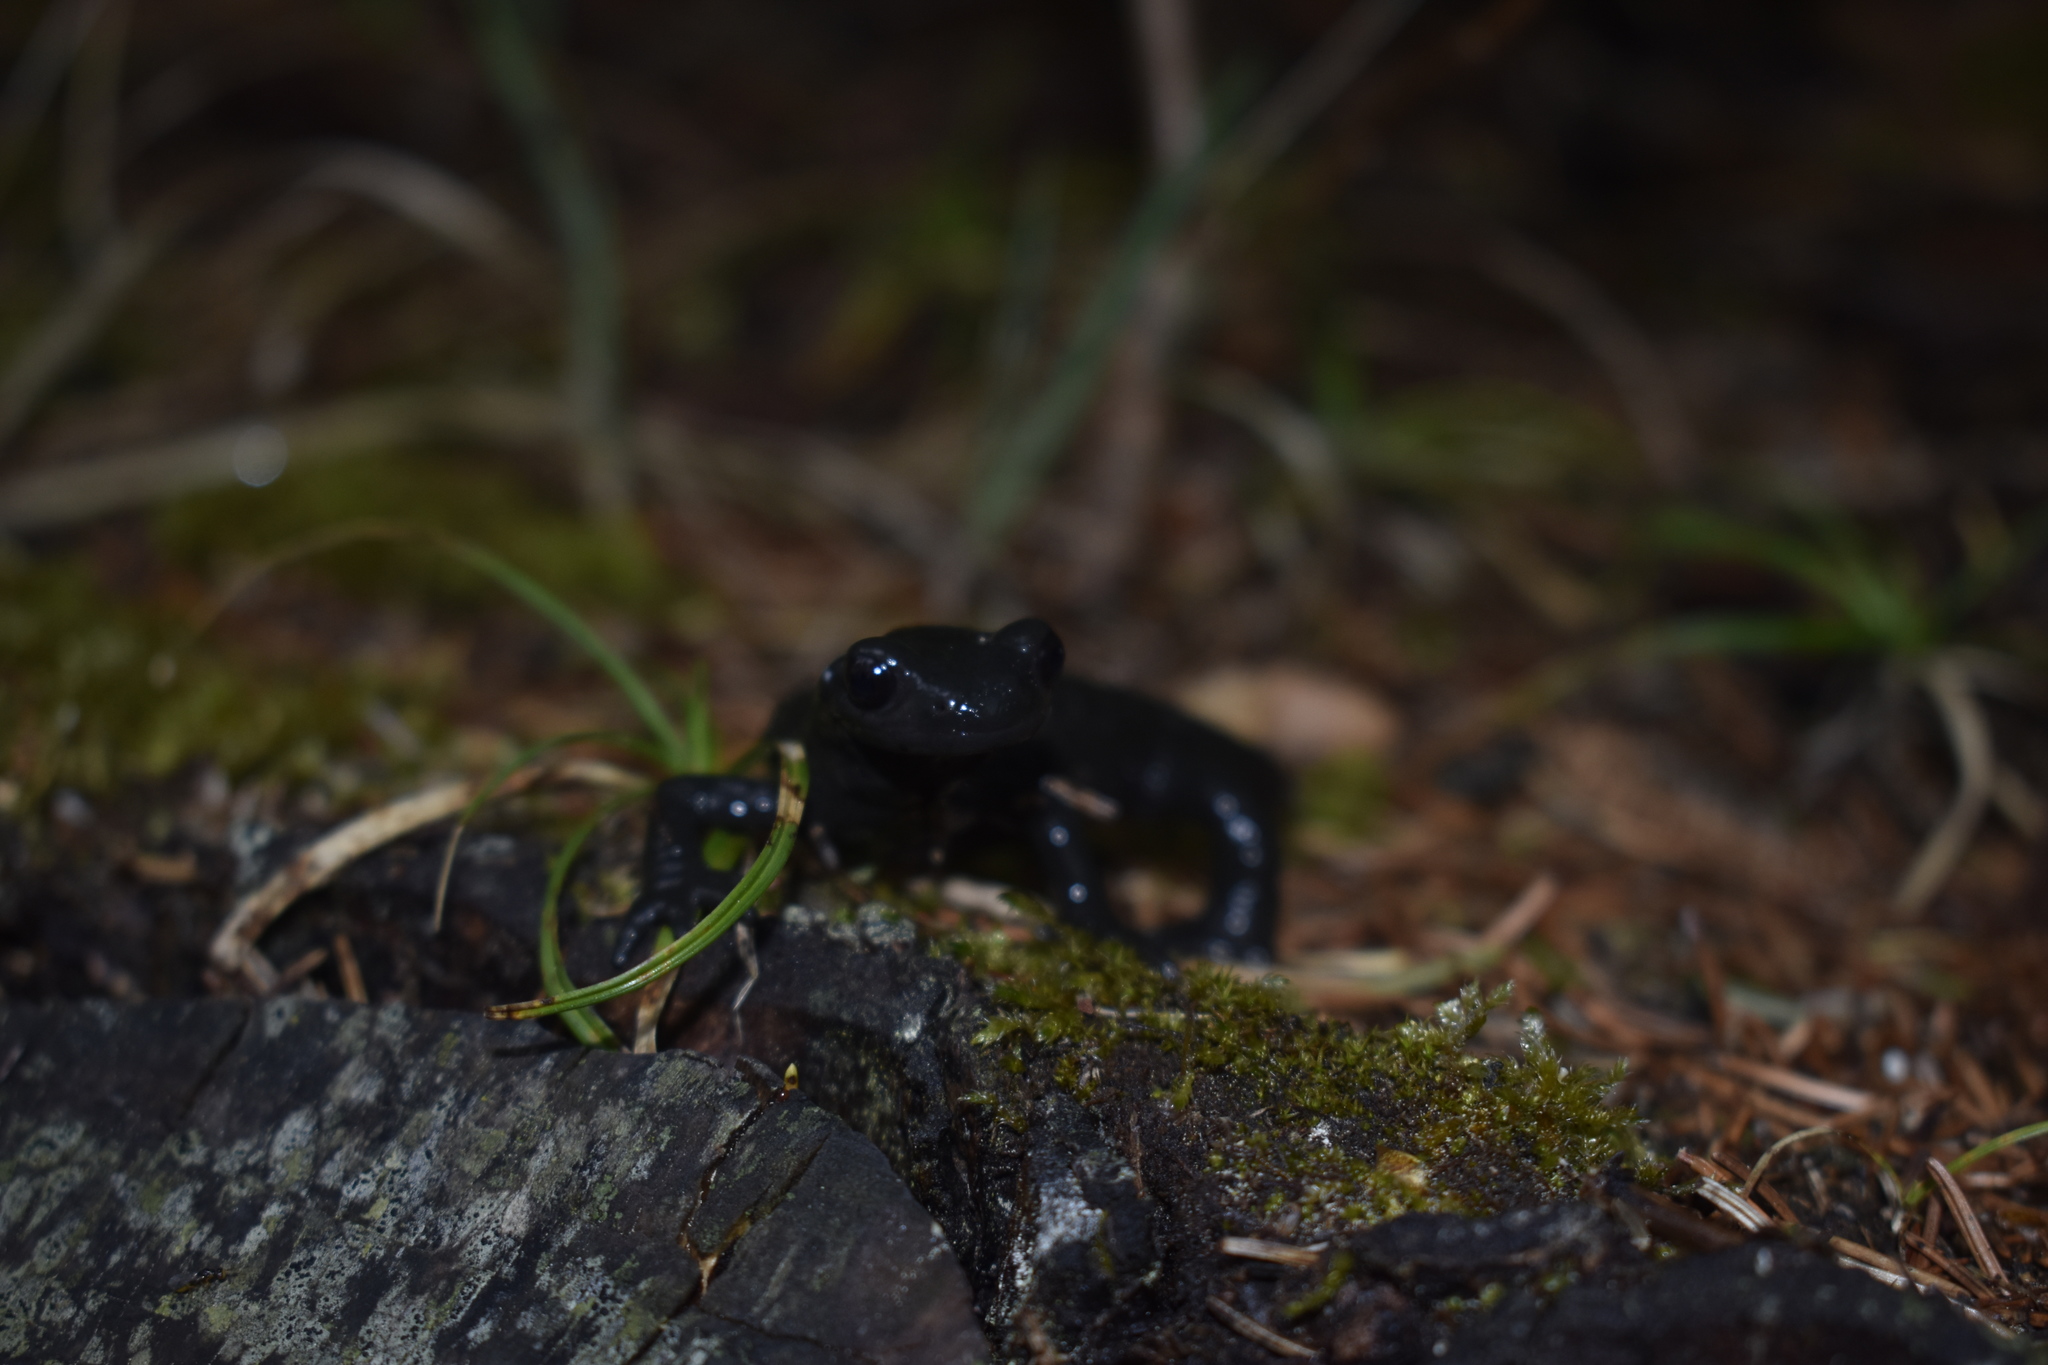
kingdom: Animalia
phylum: Chordata
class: Amphibia
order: Caudata
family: Salamandridae
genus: Salamandra
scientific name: Salamandra atra
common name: Alpine salamander
